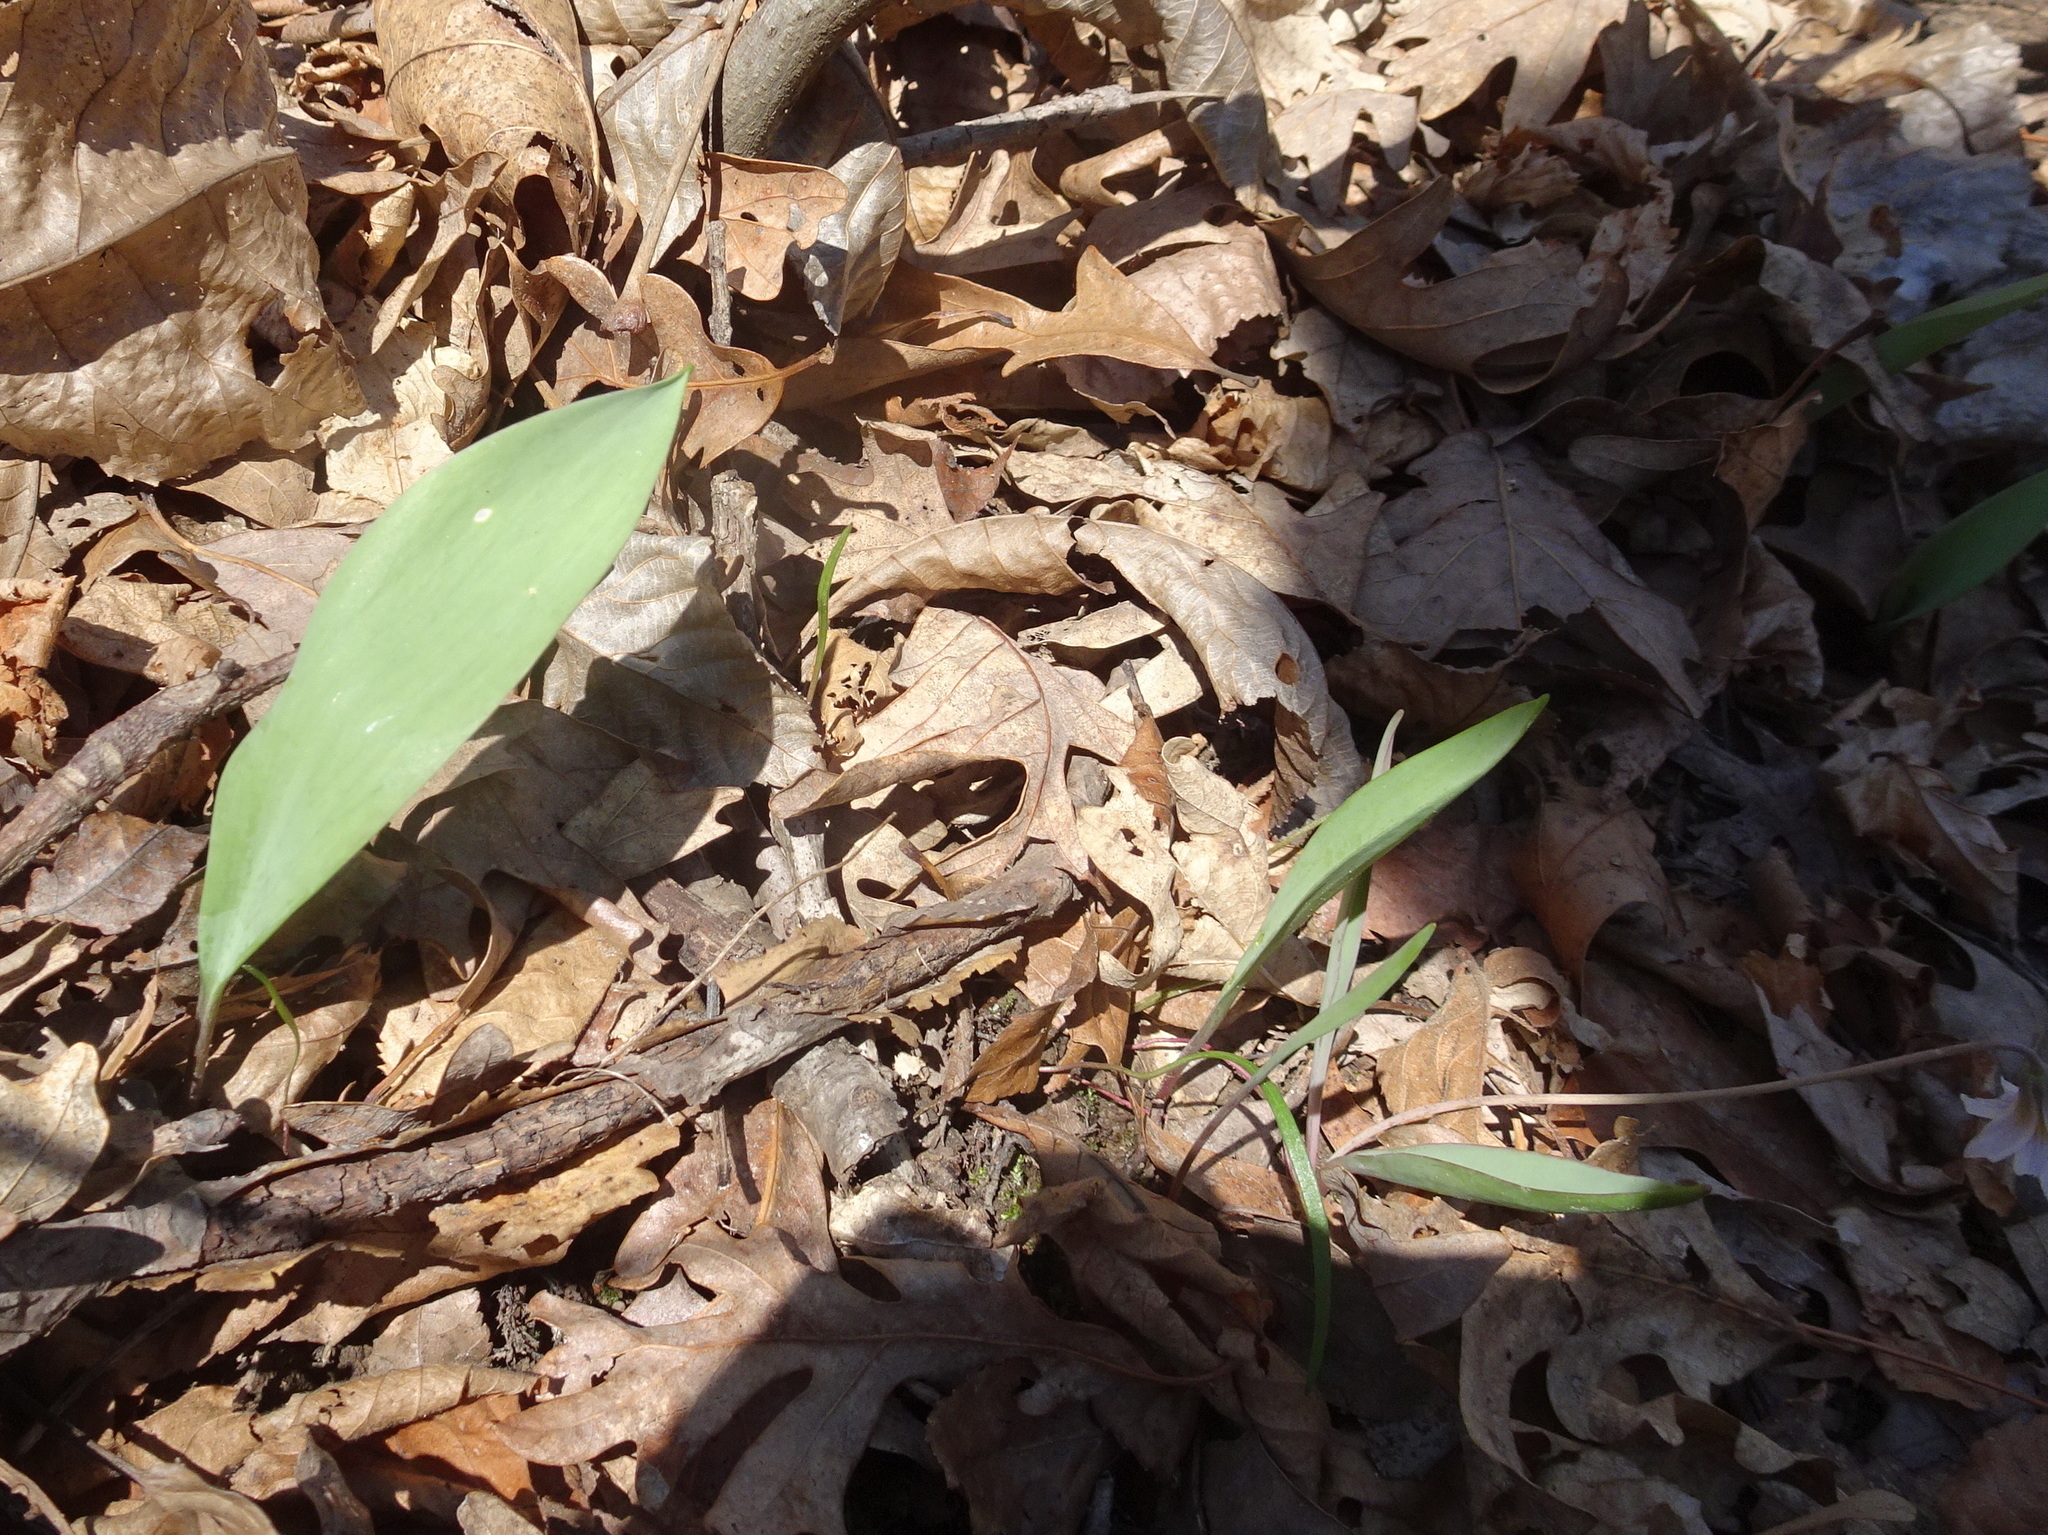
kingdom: Plantae
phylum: Tracheophyta
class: Liliopsida
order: Liliales
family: Liliaceae
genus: Erythronium
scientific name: Erythronium mesochoreum
